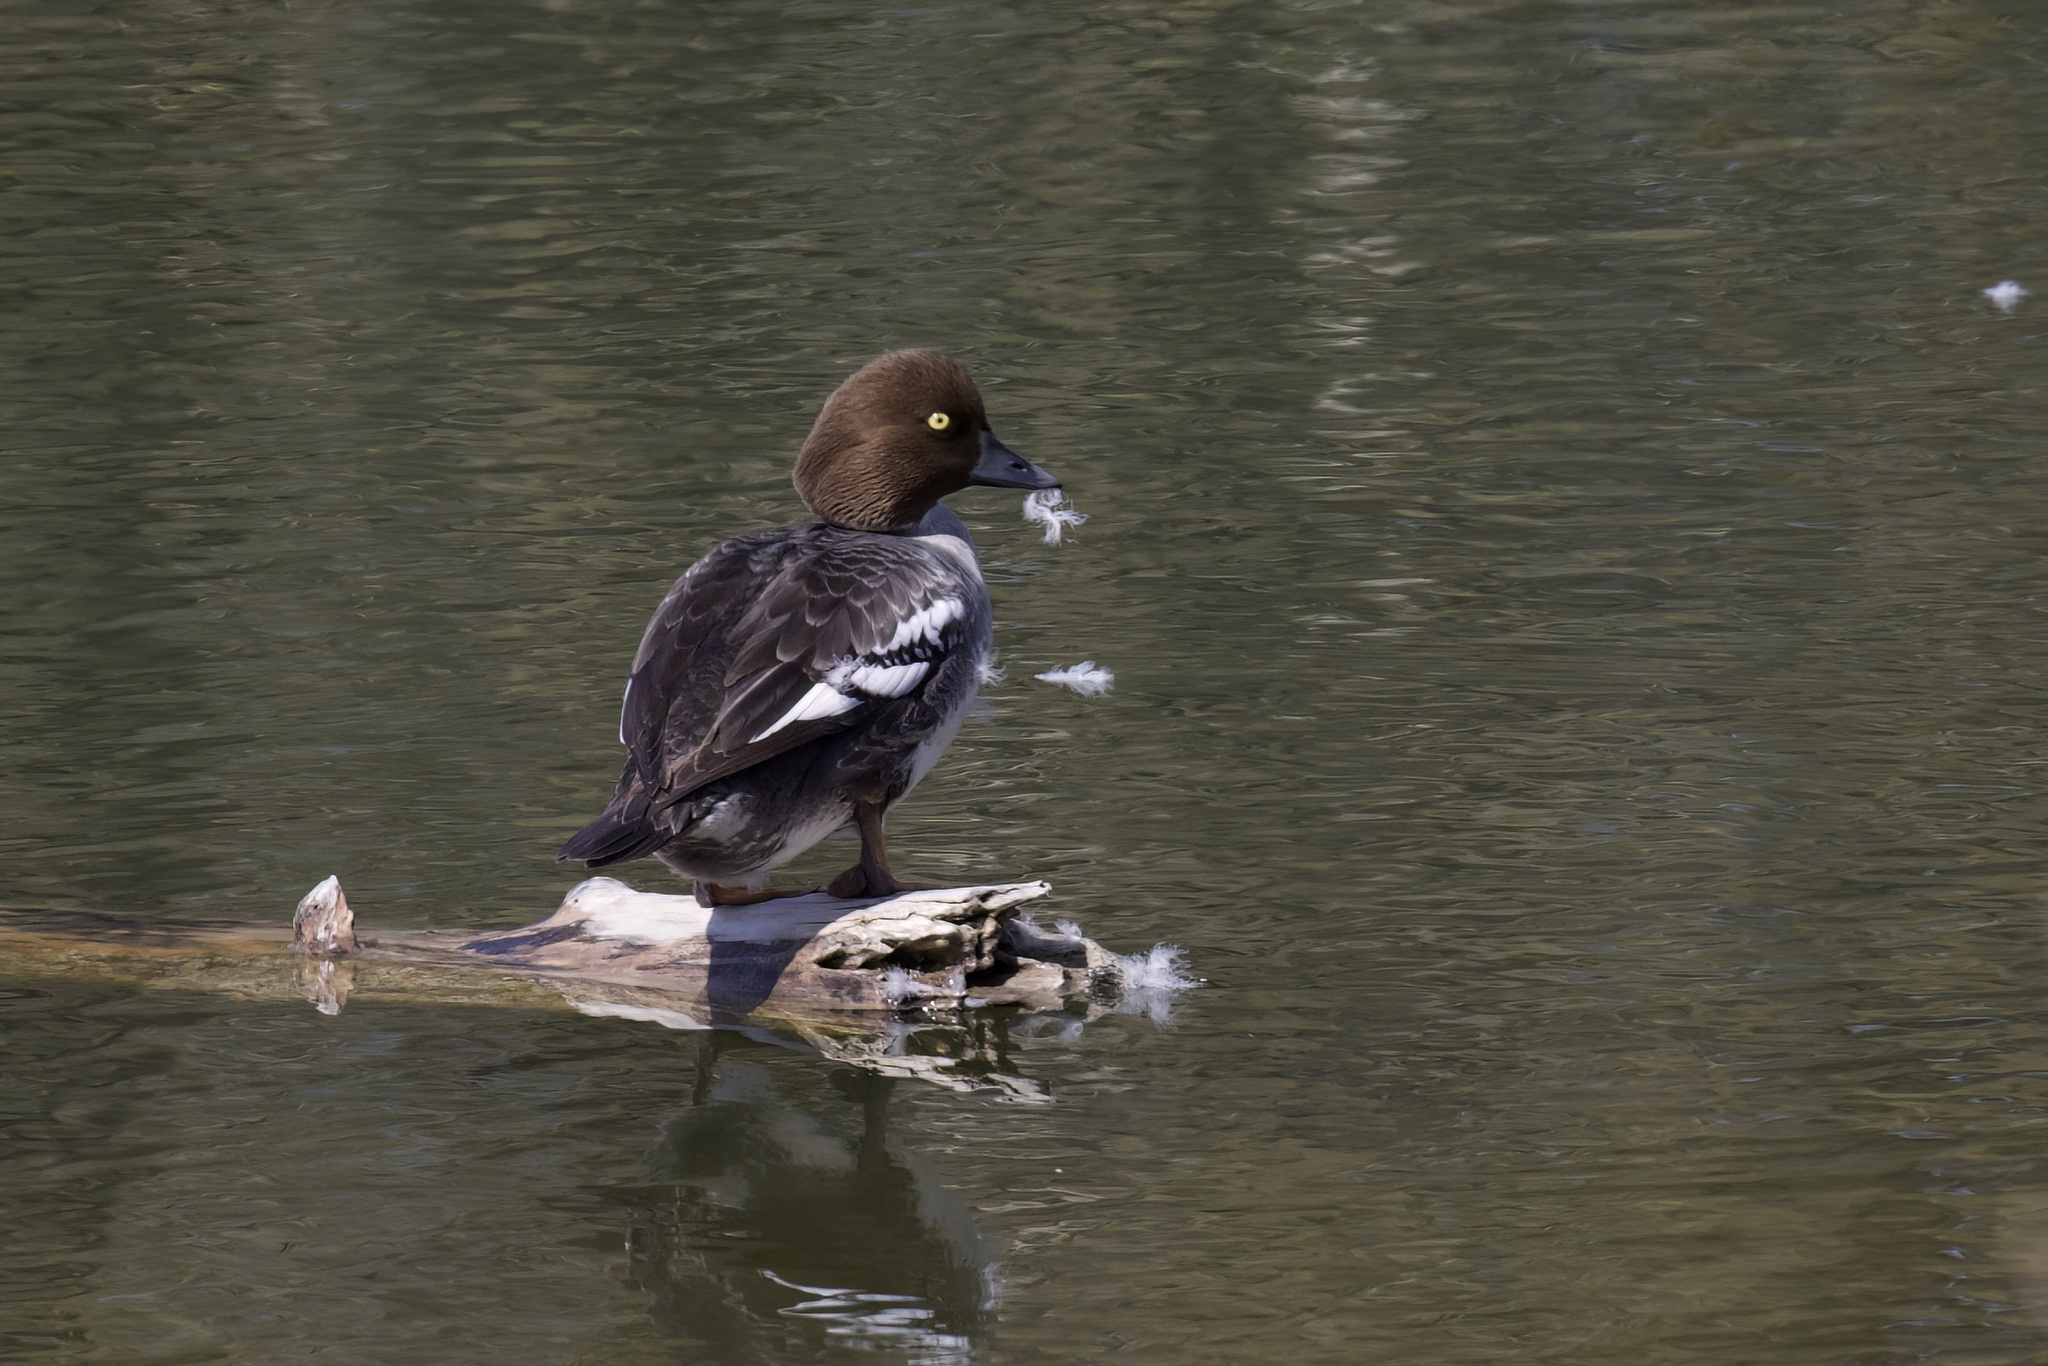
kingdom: Animalia
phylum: Chordata
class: Aves
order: Anseriformes
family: Anatidae
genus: Bucephala
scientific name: Bucephala clangula
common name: Common goldeneye
